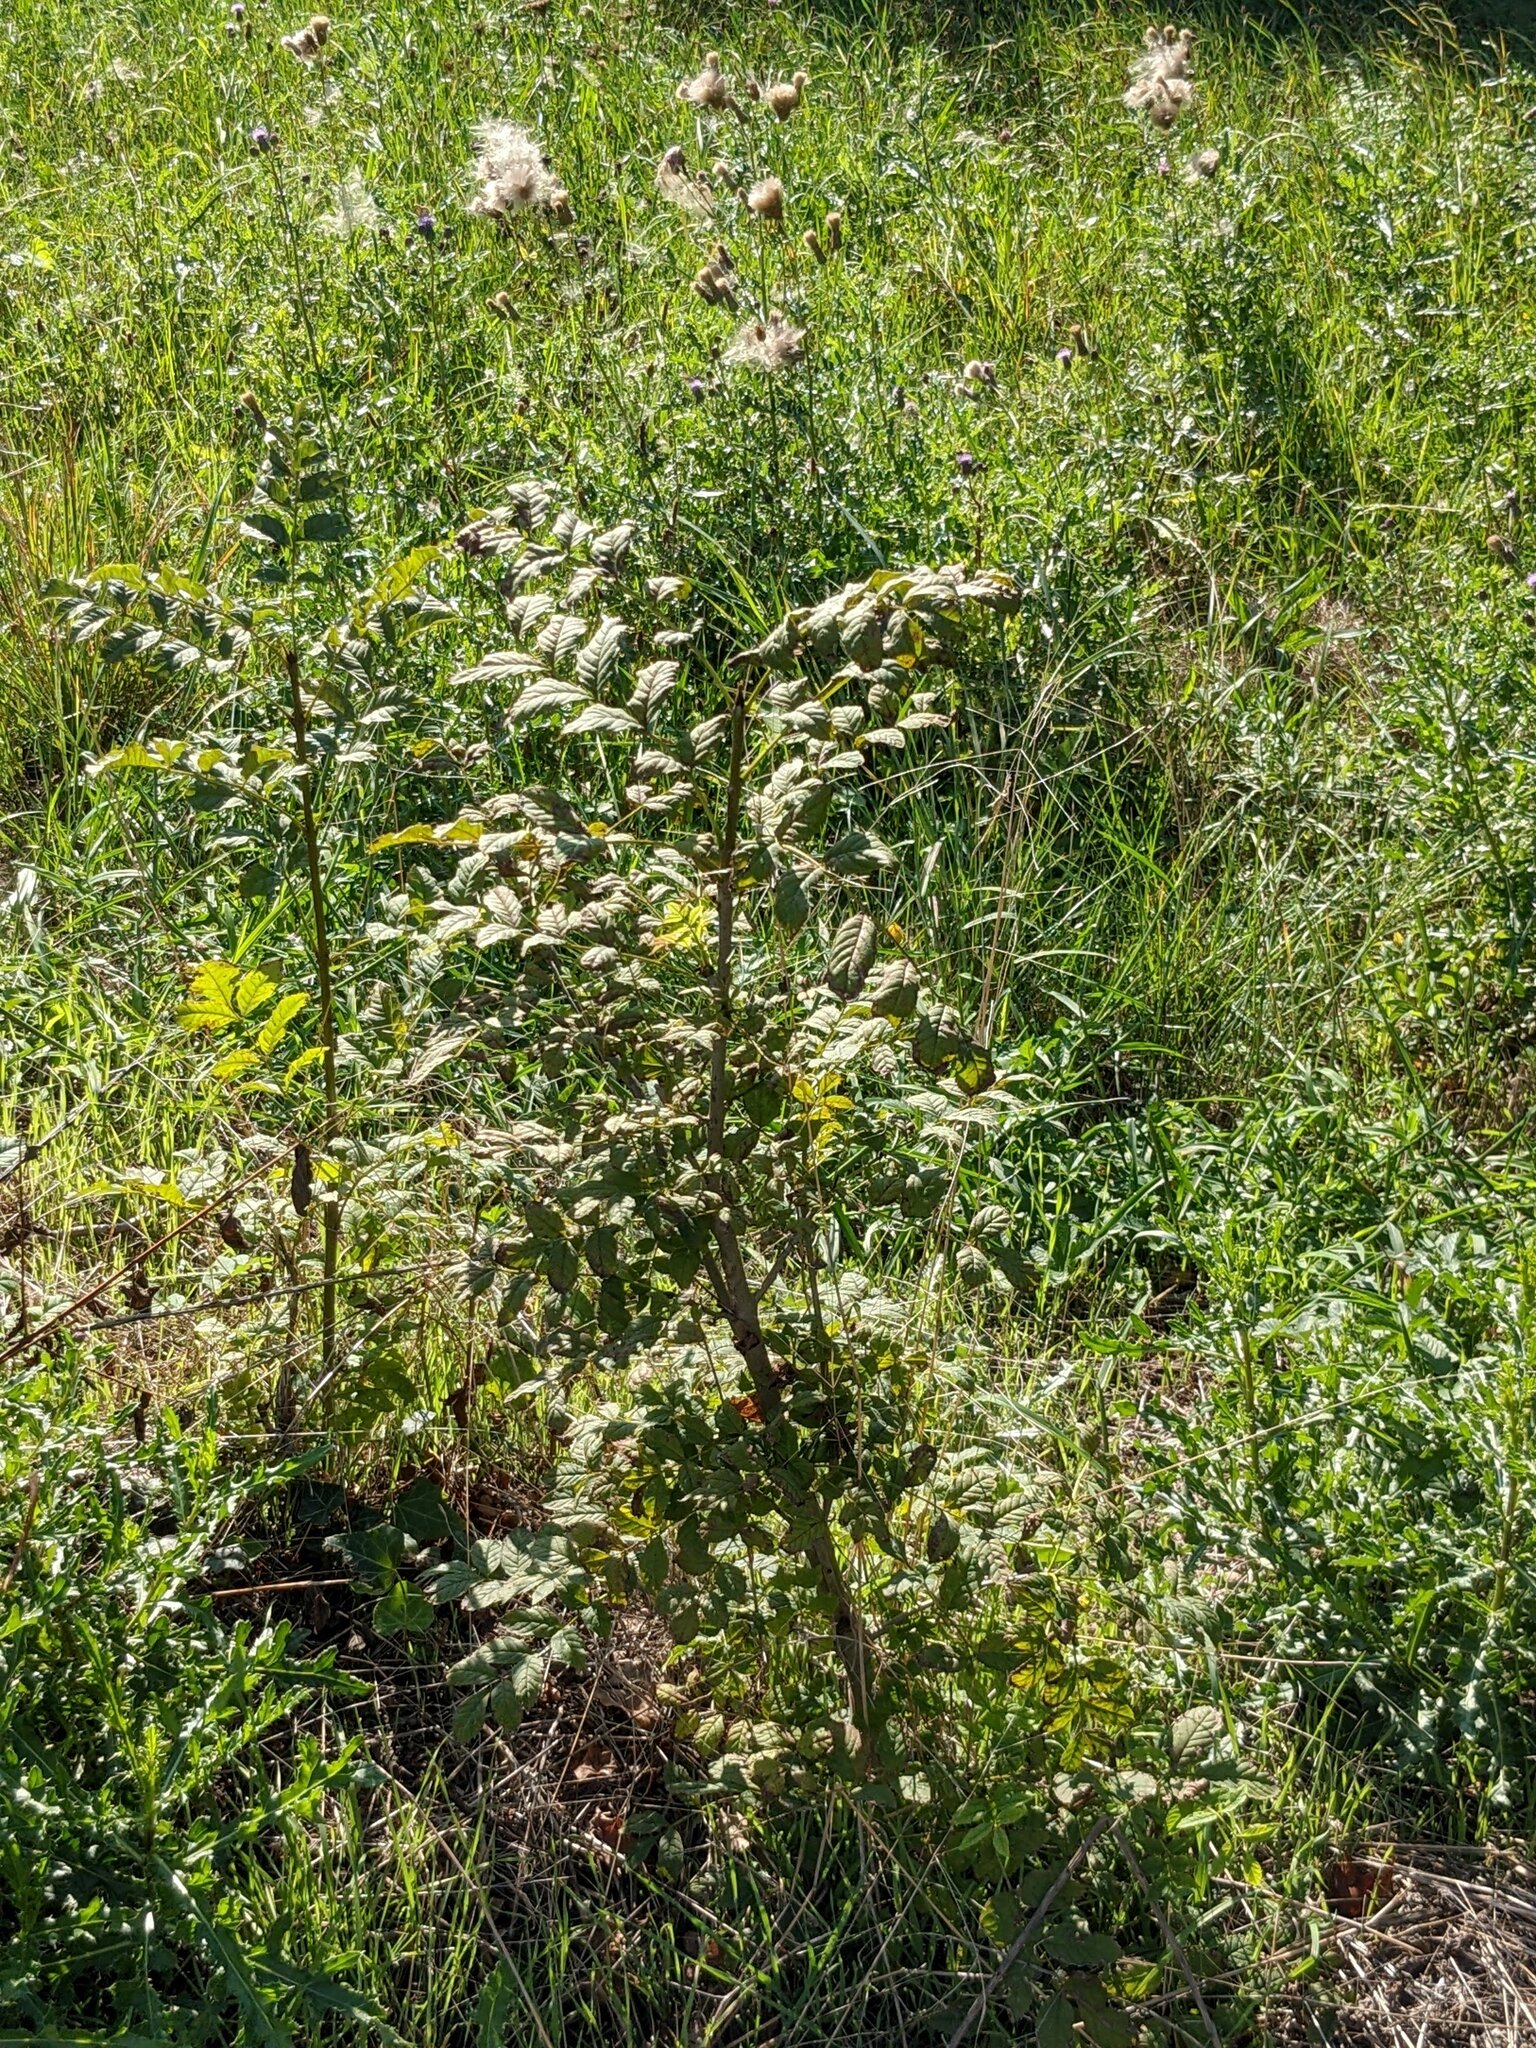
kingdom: Plantae
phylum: Tracheophyta
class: Magnoliopsida
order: Lamiales
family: Oleaceae
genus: Fraxinus
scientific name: Fraxinus excelsior
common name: European ash
